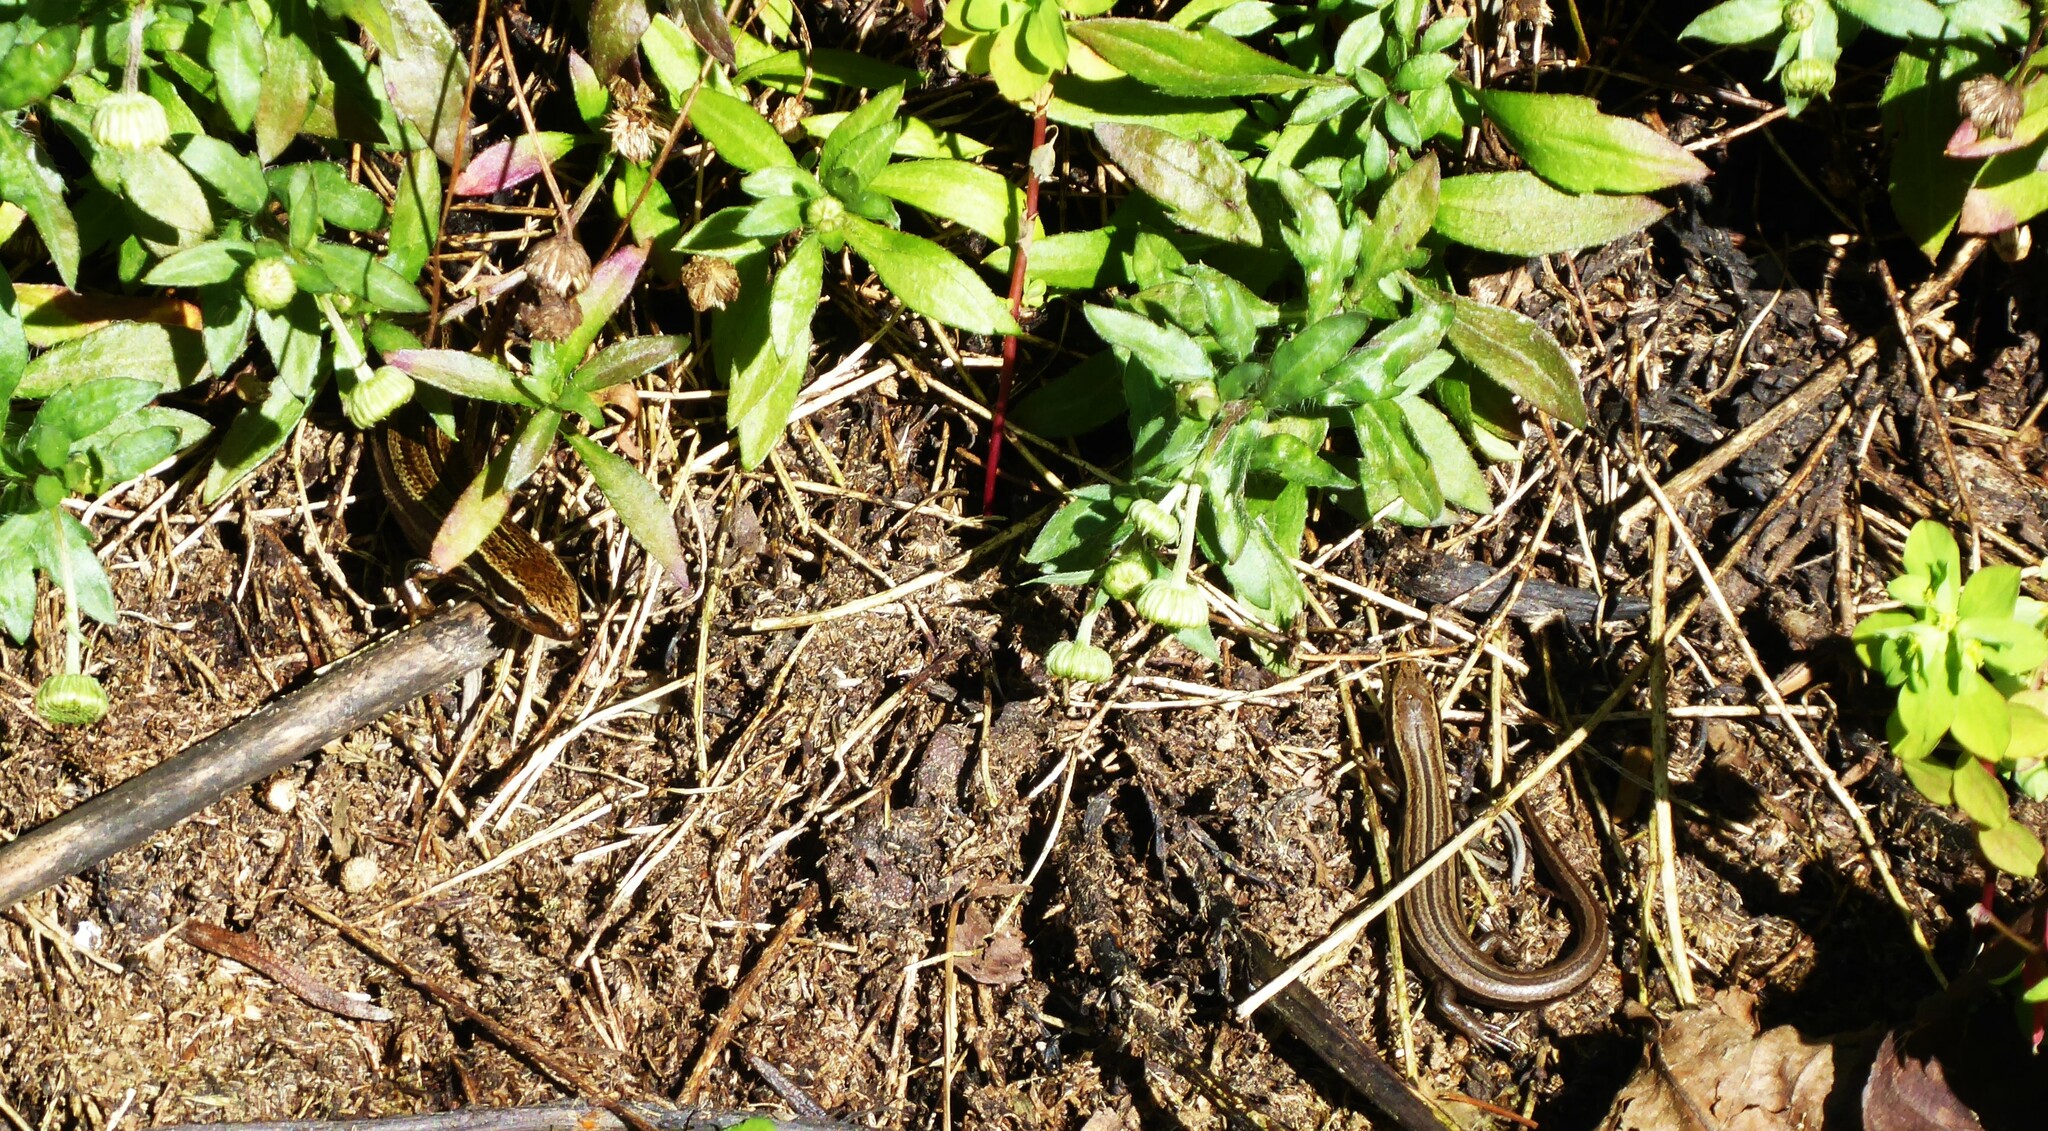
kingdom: Animalia
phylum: Chordata
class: Squamata
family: Scincidae
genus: Oligosoma
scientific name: Oligosoma polychroma
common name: Common new zealand skink
